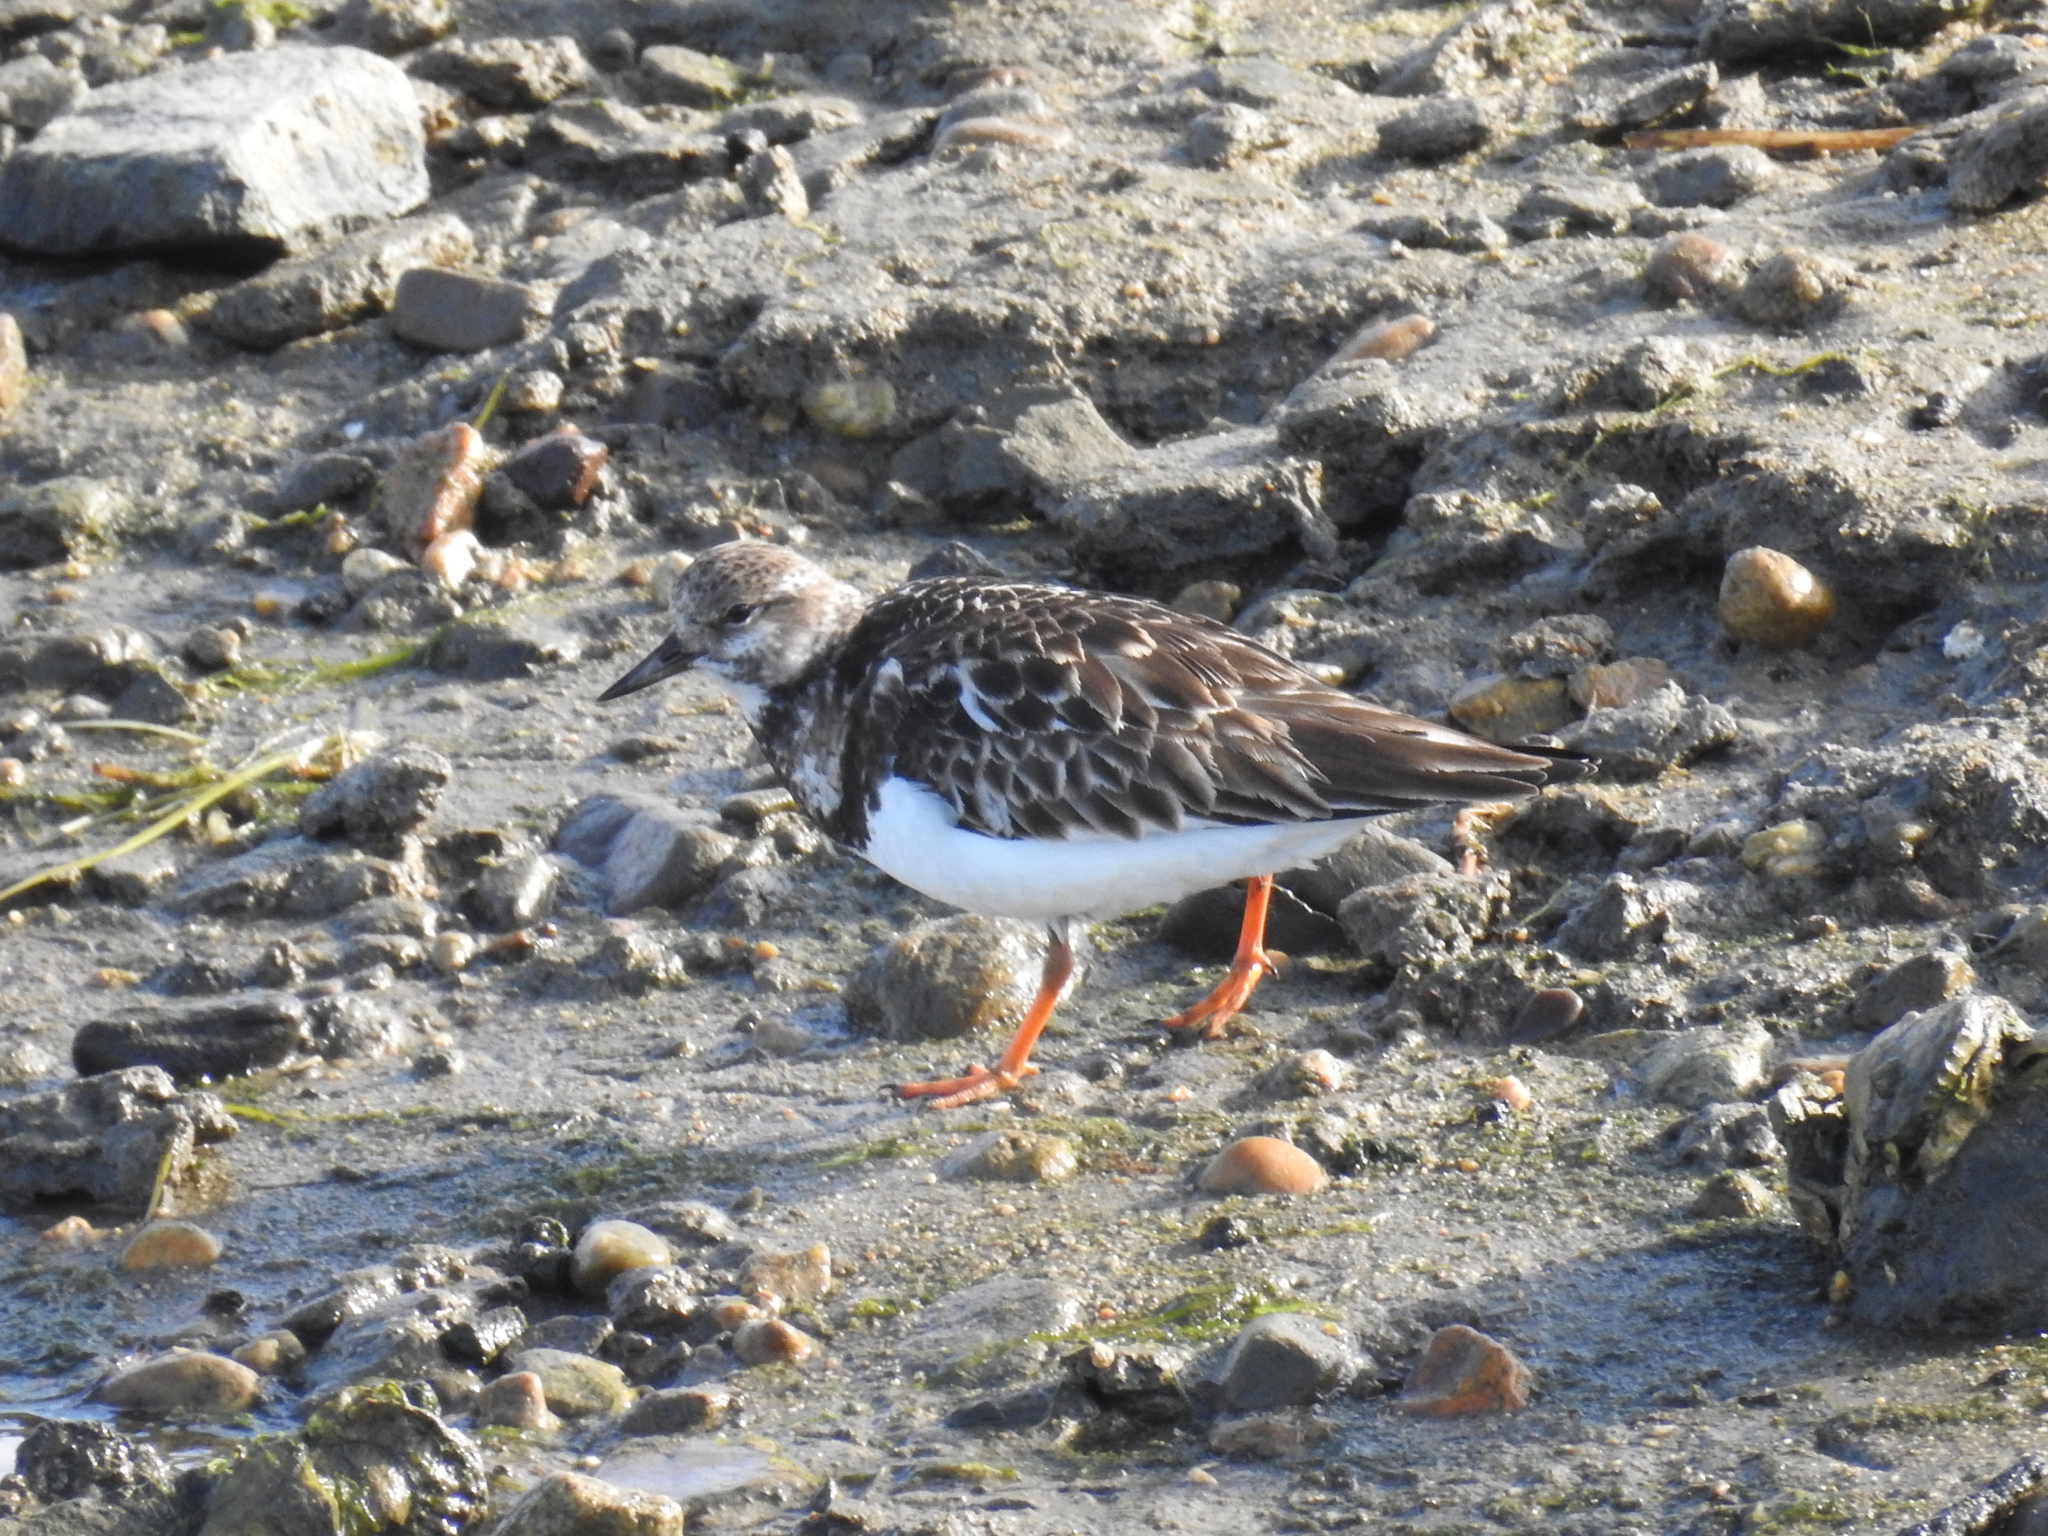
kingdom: Animalia
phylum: Chordata
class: Aves
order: Charadriiformes
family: Scolopacidae
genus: Arenaria
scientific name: Arenaria interpres
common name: Ruddy turnstone
